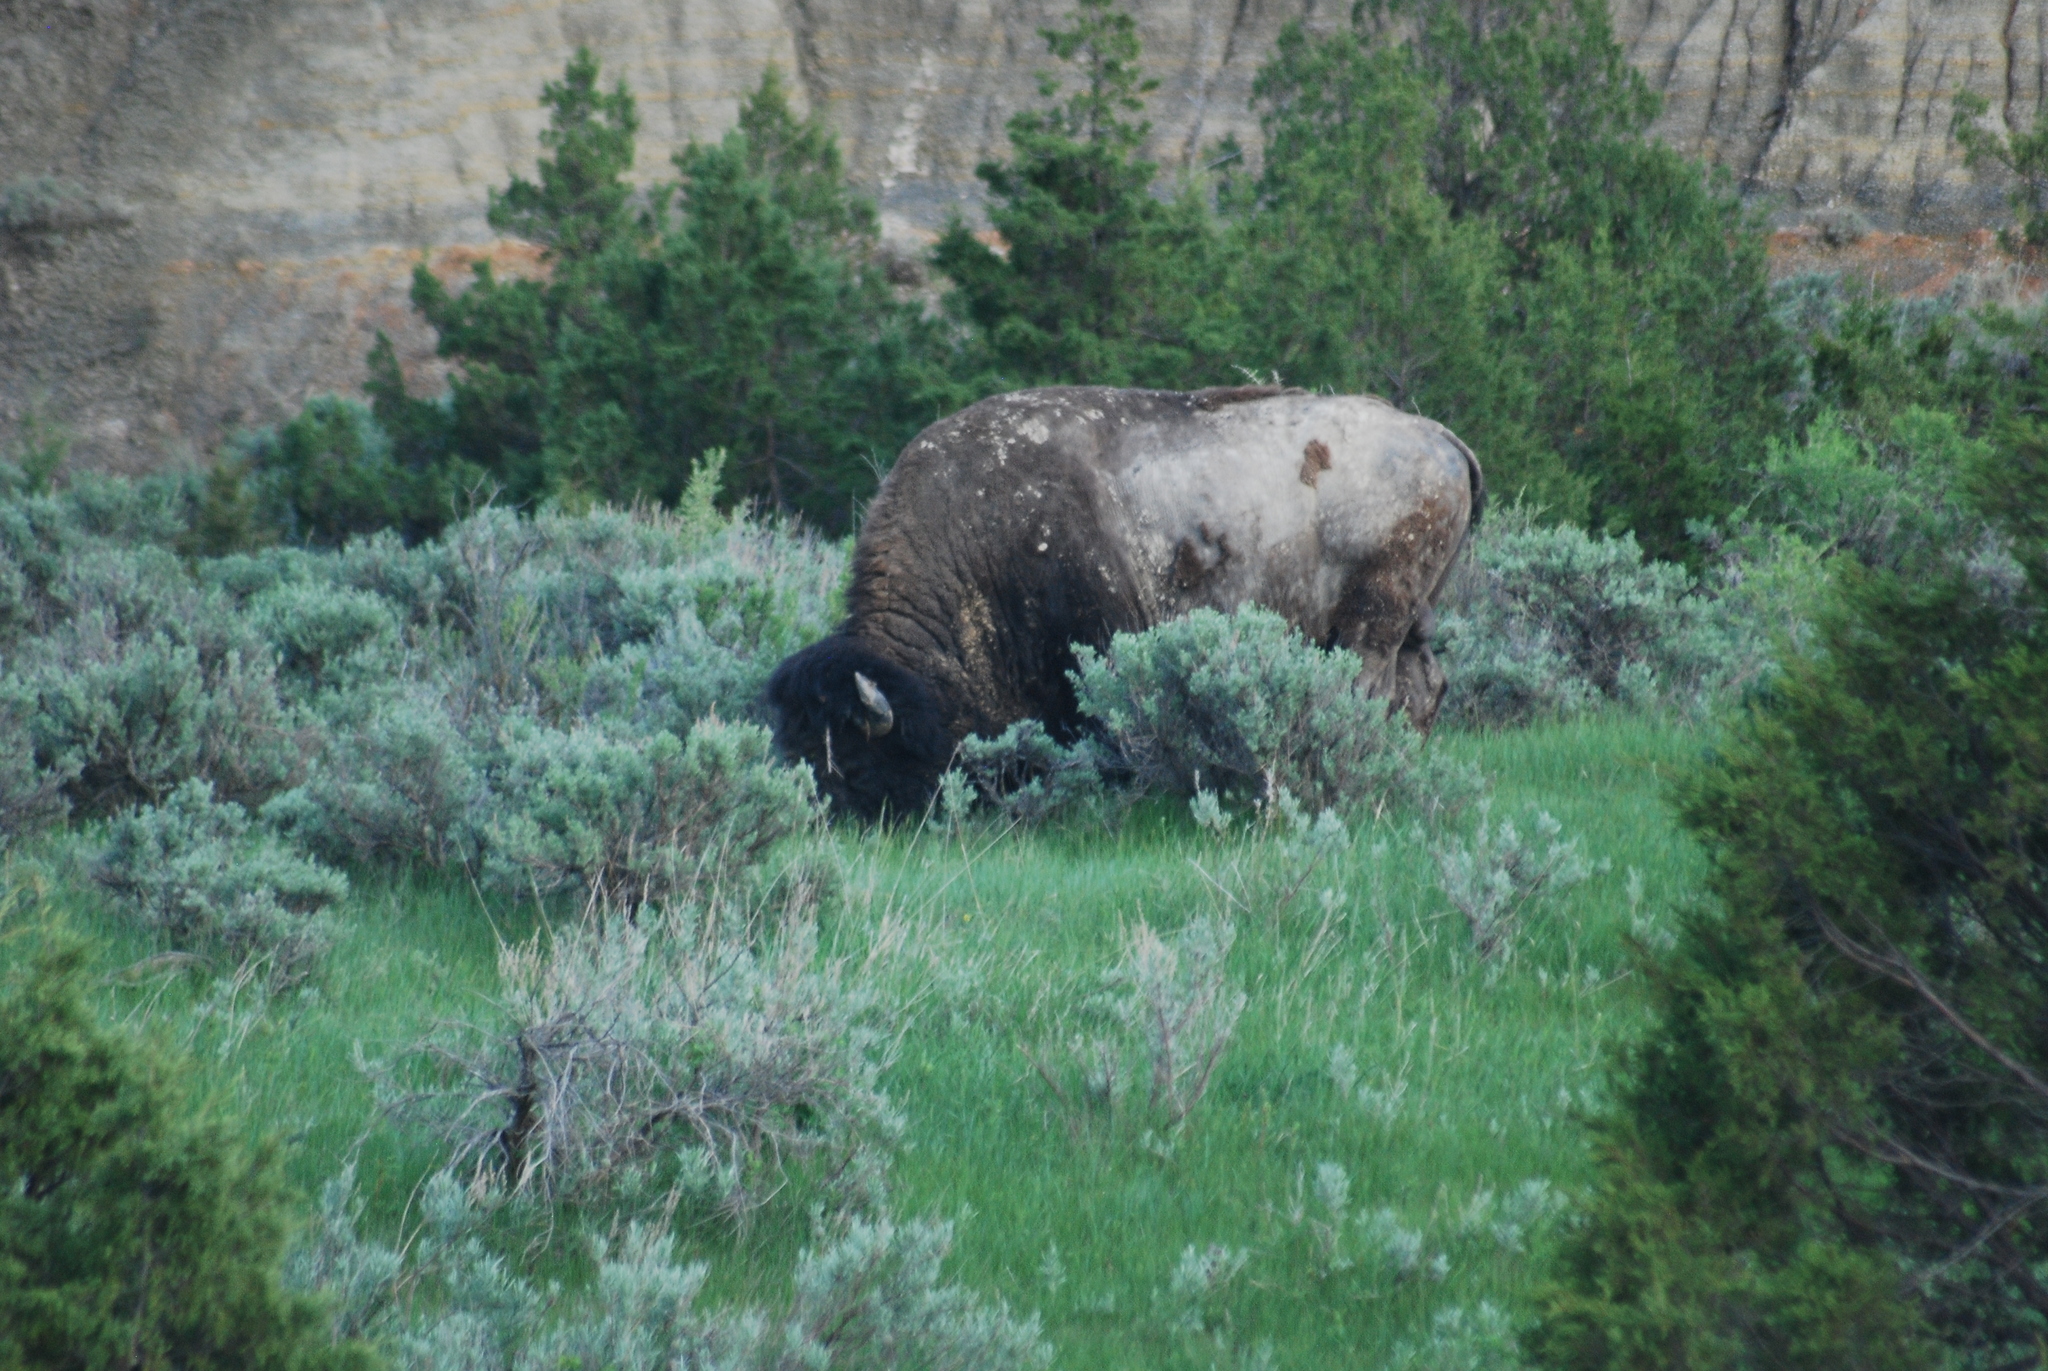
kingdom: Animalia
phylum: Chordata
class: Mammalia
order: Artiodactyla
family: Bovidae
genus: Bison
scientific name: Bison bison
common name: American bison
